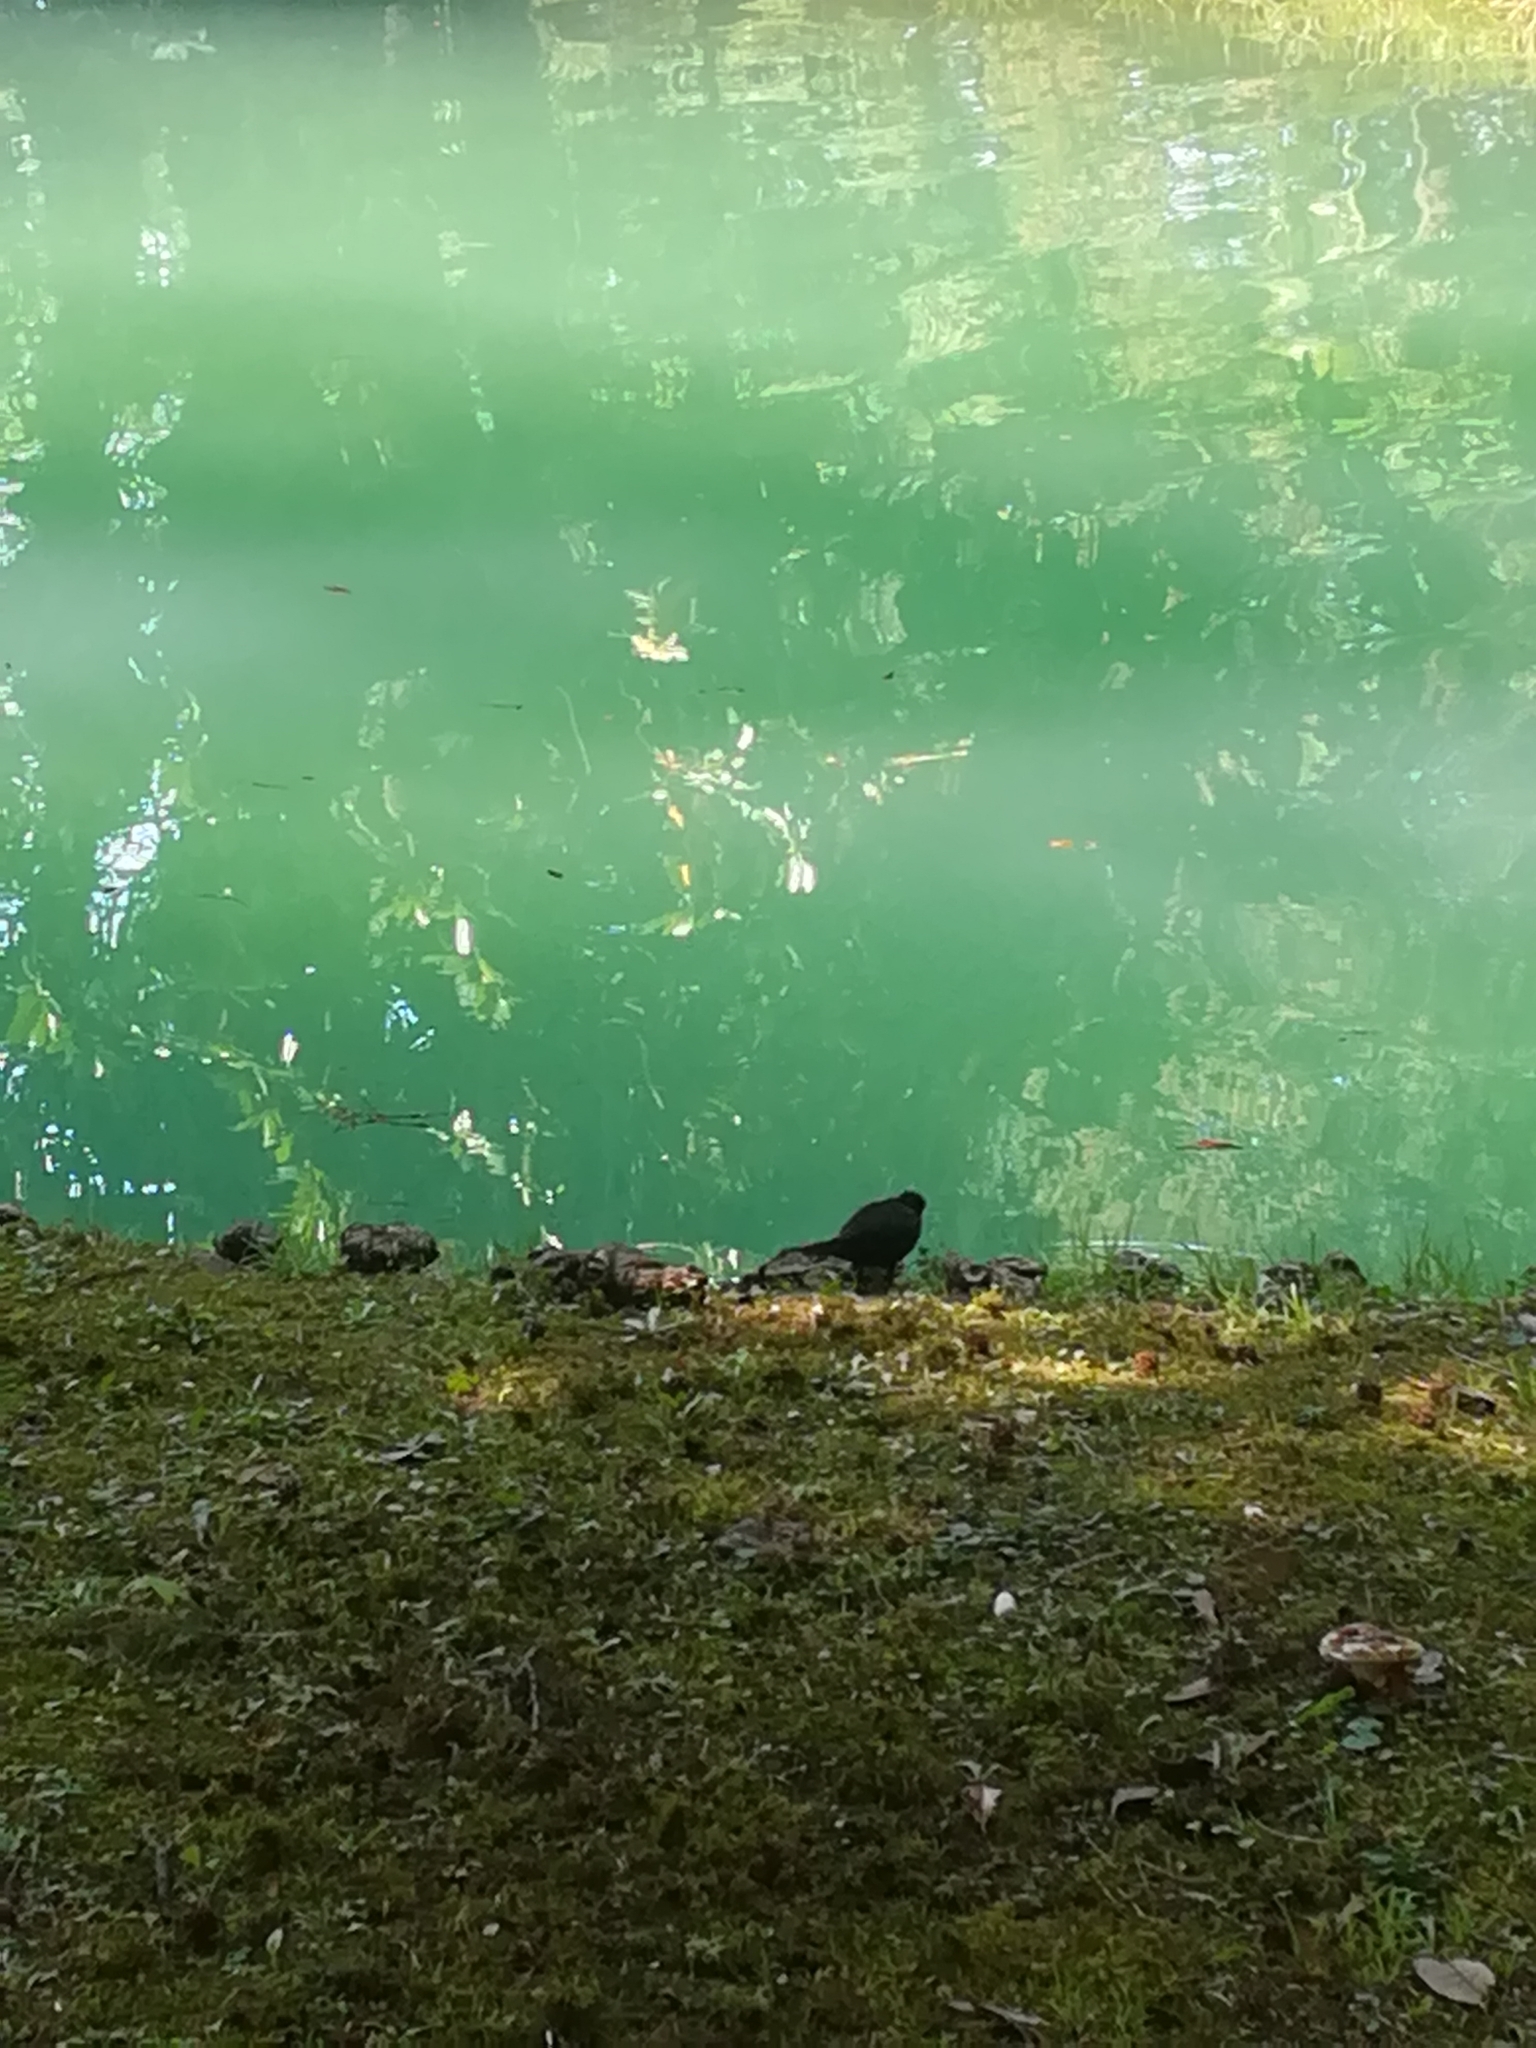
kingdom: Animalia
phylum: Chordata
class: Aves
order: Passeriformes
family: Turdidae
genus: Turdus
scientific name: Turdus merula
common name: Common blackbird
